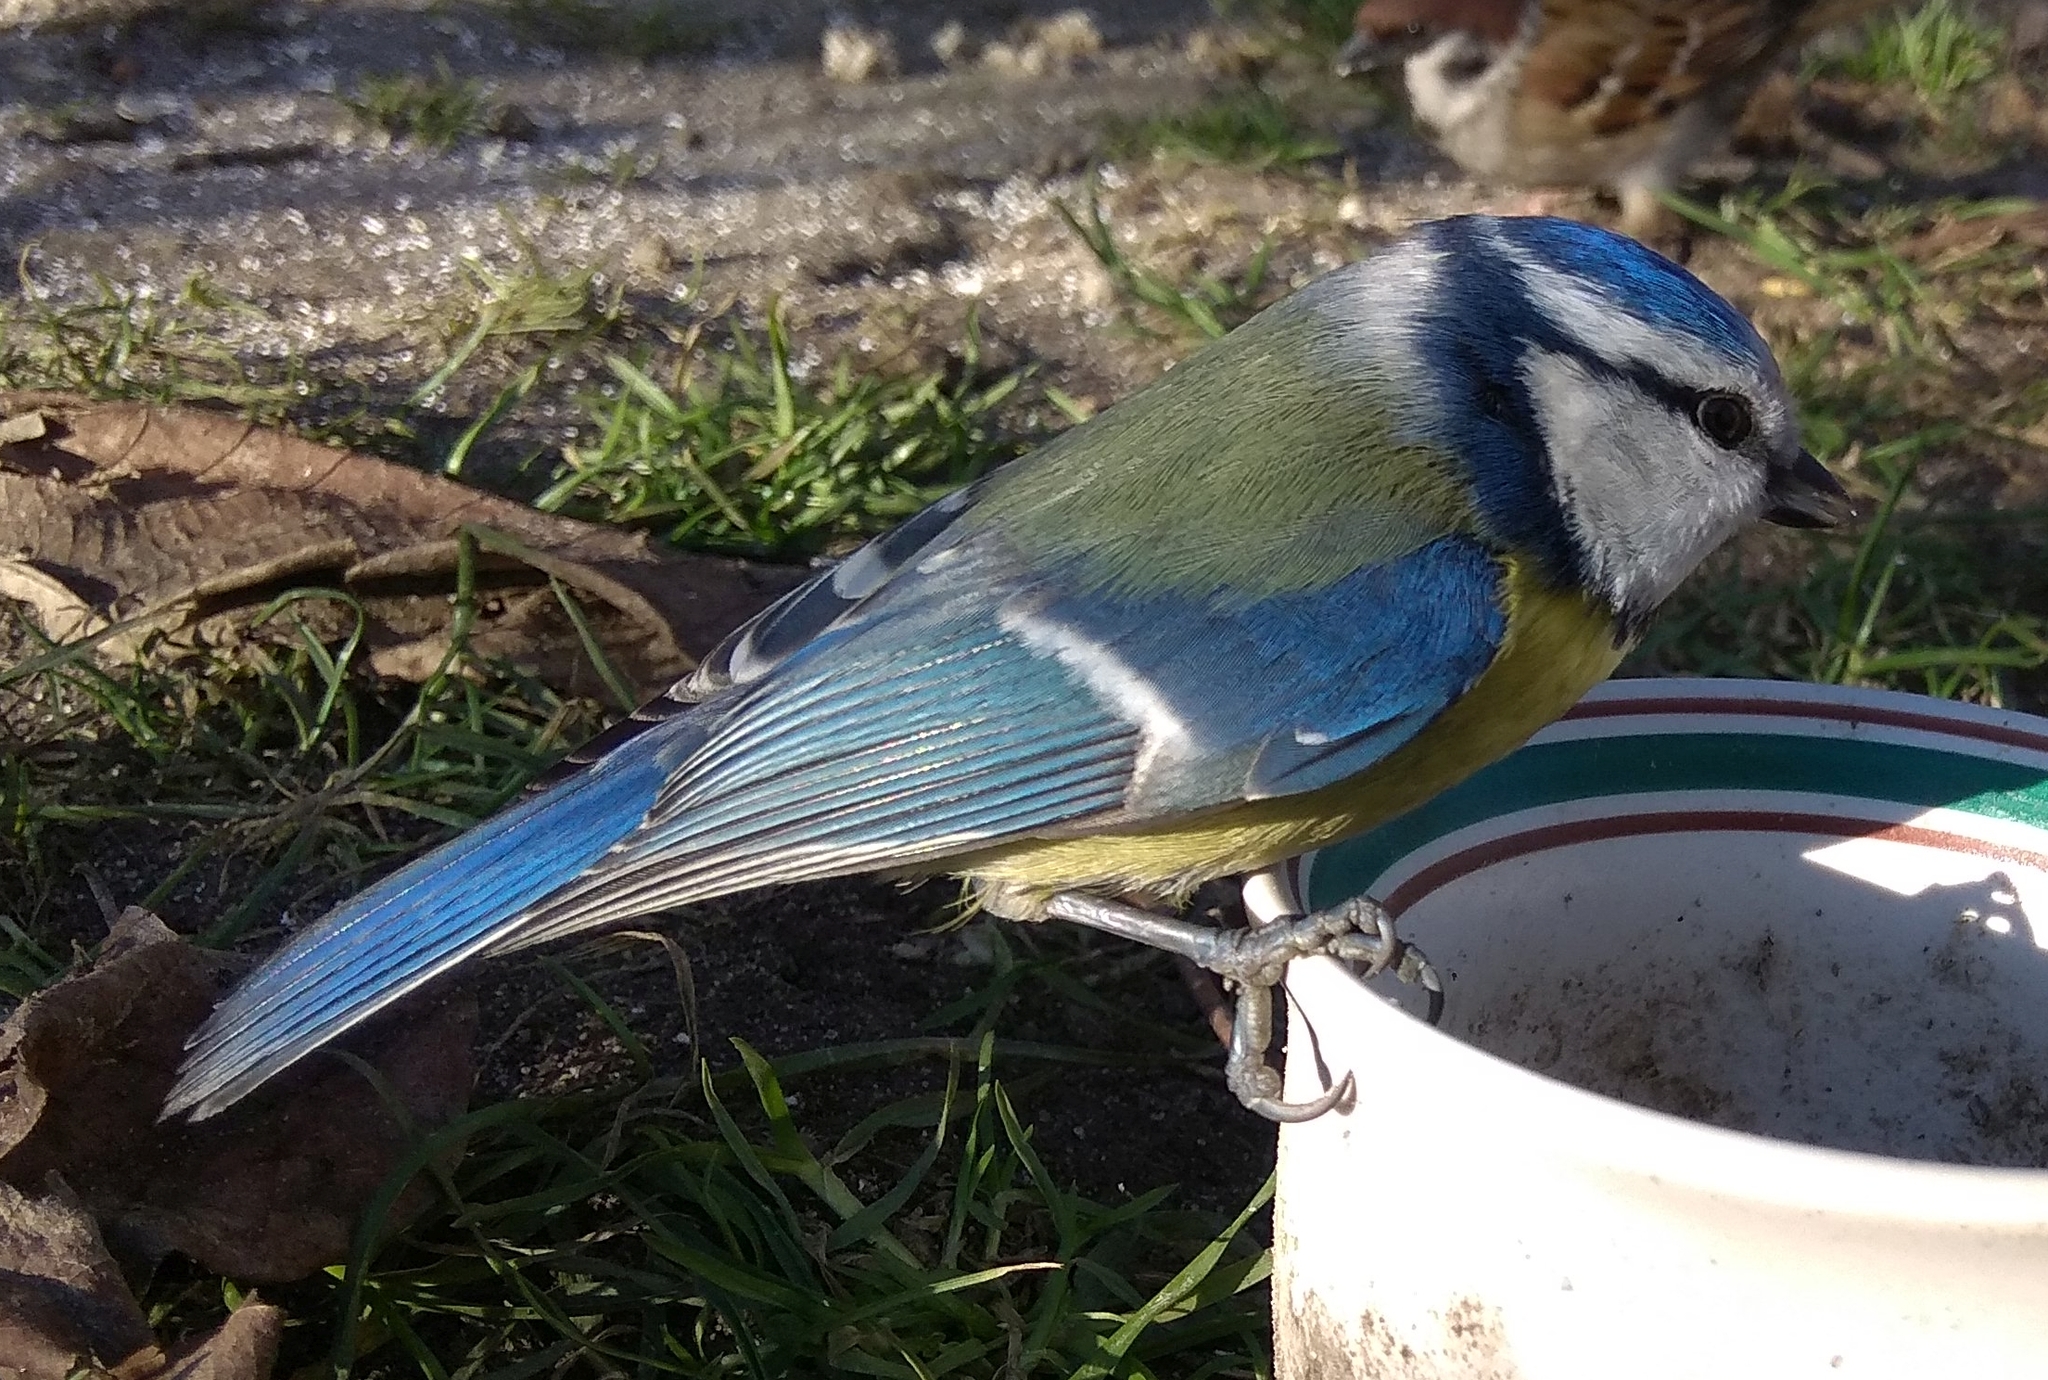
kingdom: Animalia
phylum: Chordata
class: Aves
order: Passeriformes
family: Paridae
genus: Cyanistes
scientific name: Cyanistes caeruleus
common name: Eurasian blue tit
